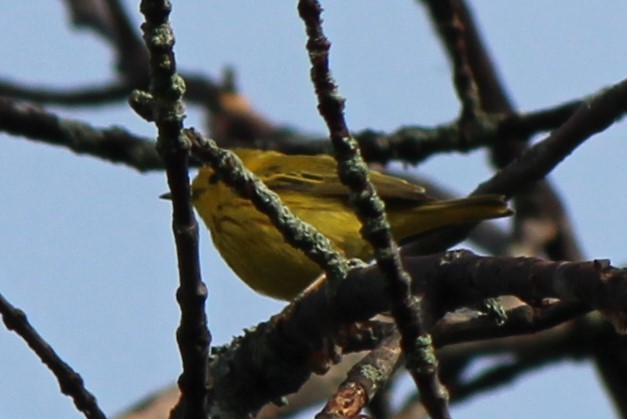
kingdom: Animalia
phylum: Chordata
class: Aves
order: Passeriformes
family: Parulidae
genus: Setophaga
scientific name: Setophaga petechia
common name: Yellow warbler
